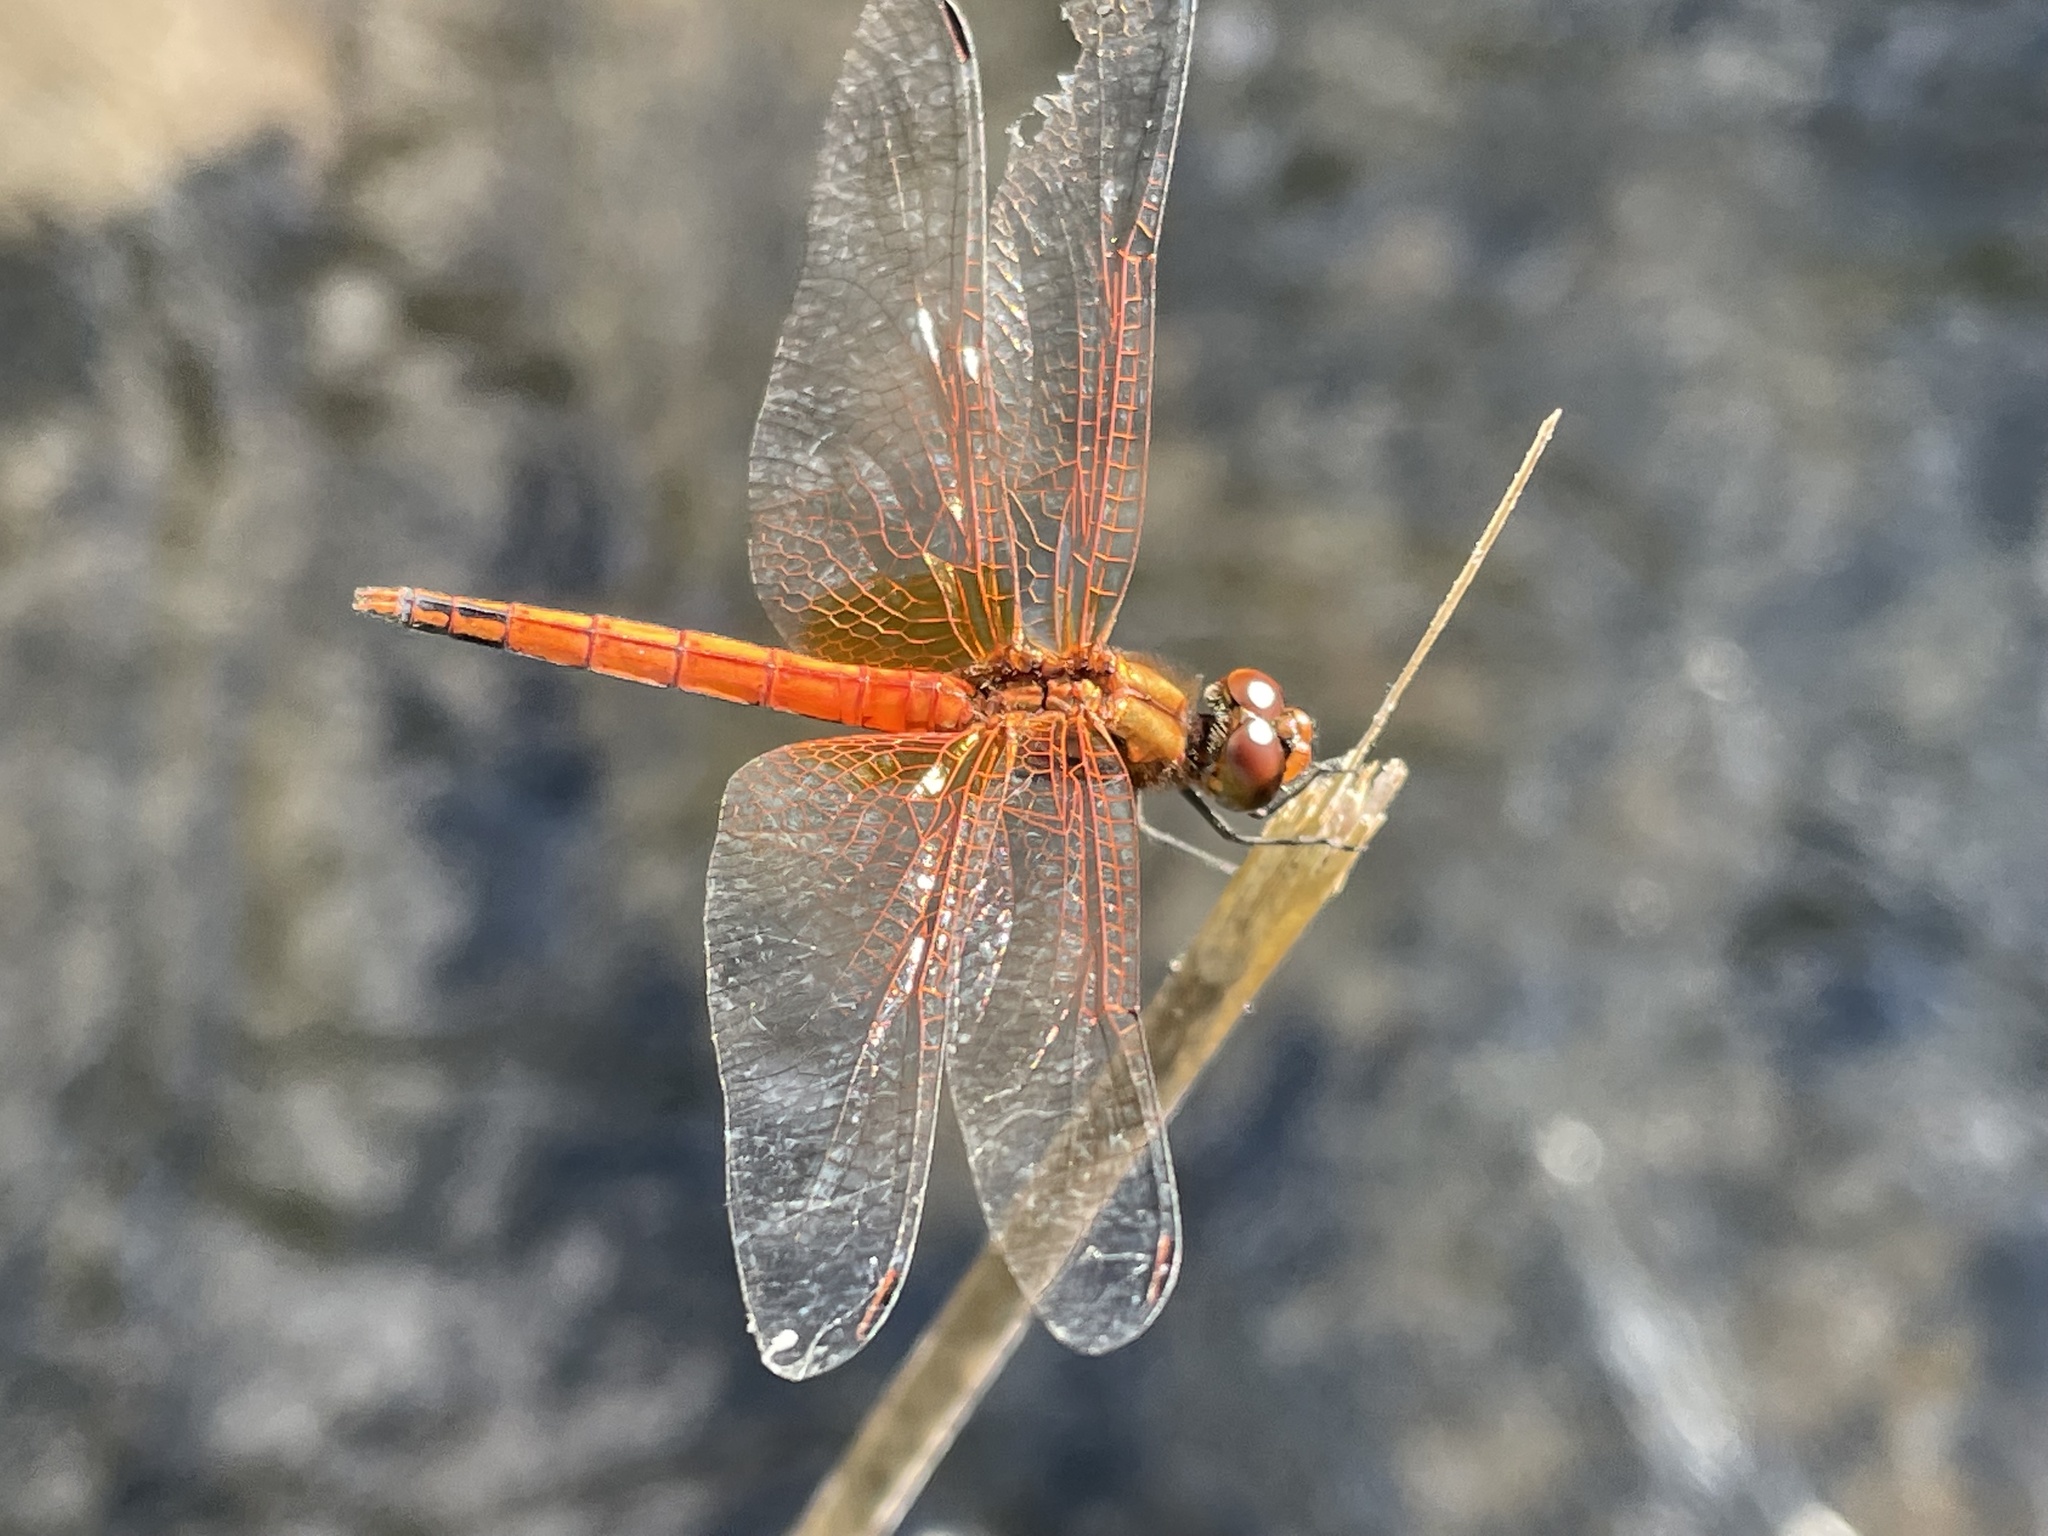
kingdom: Animalia
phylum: Arthropoda
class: Insecta
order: Odonata
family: Libellulidae
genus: Trithemis
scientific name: Trithemis pluvialis
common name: Russet dropwing
